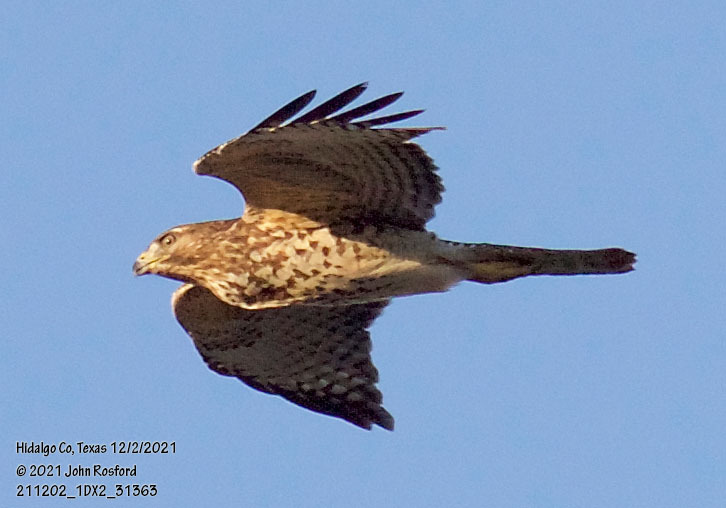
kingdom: Animalia
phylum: Chordata
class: Aves
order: Accipitriformes
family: Accipitridae
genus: Buteo
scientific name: Buteo lineatus
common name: Red-shouldered hawk
